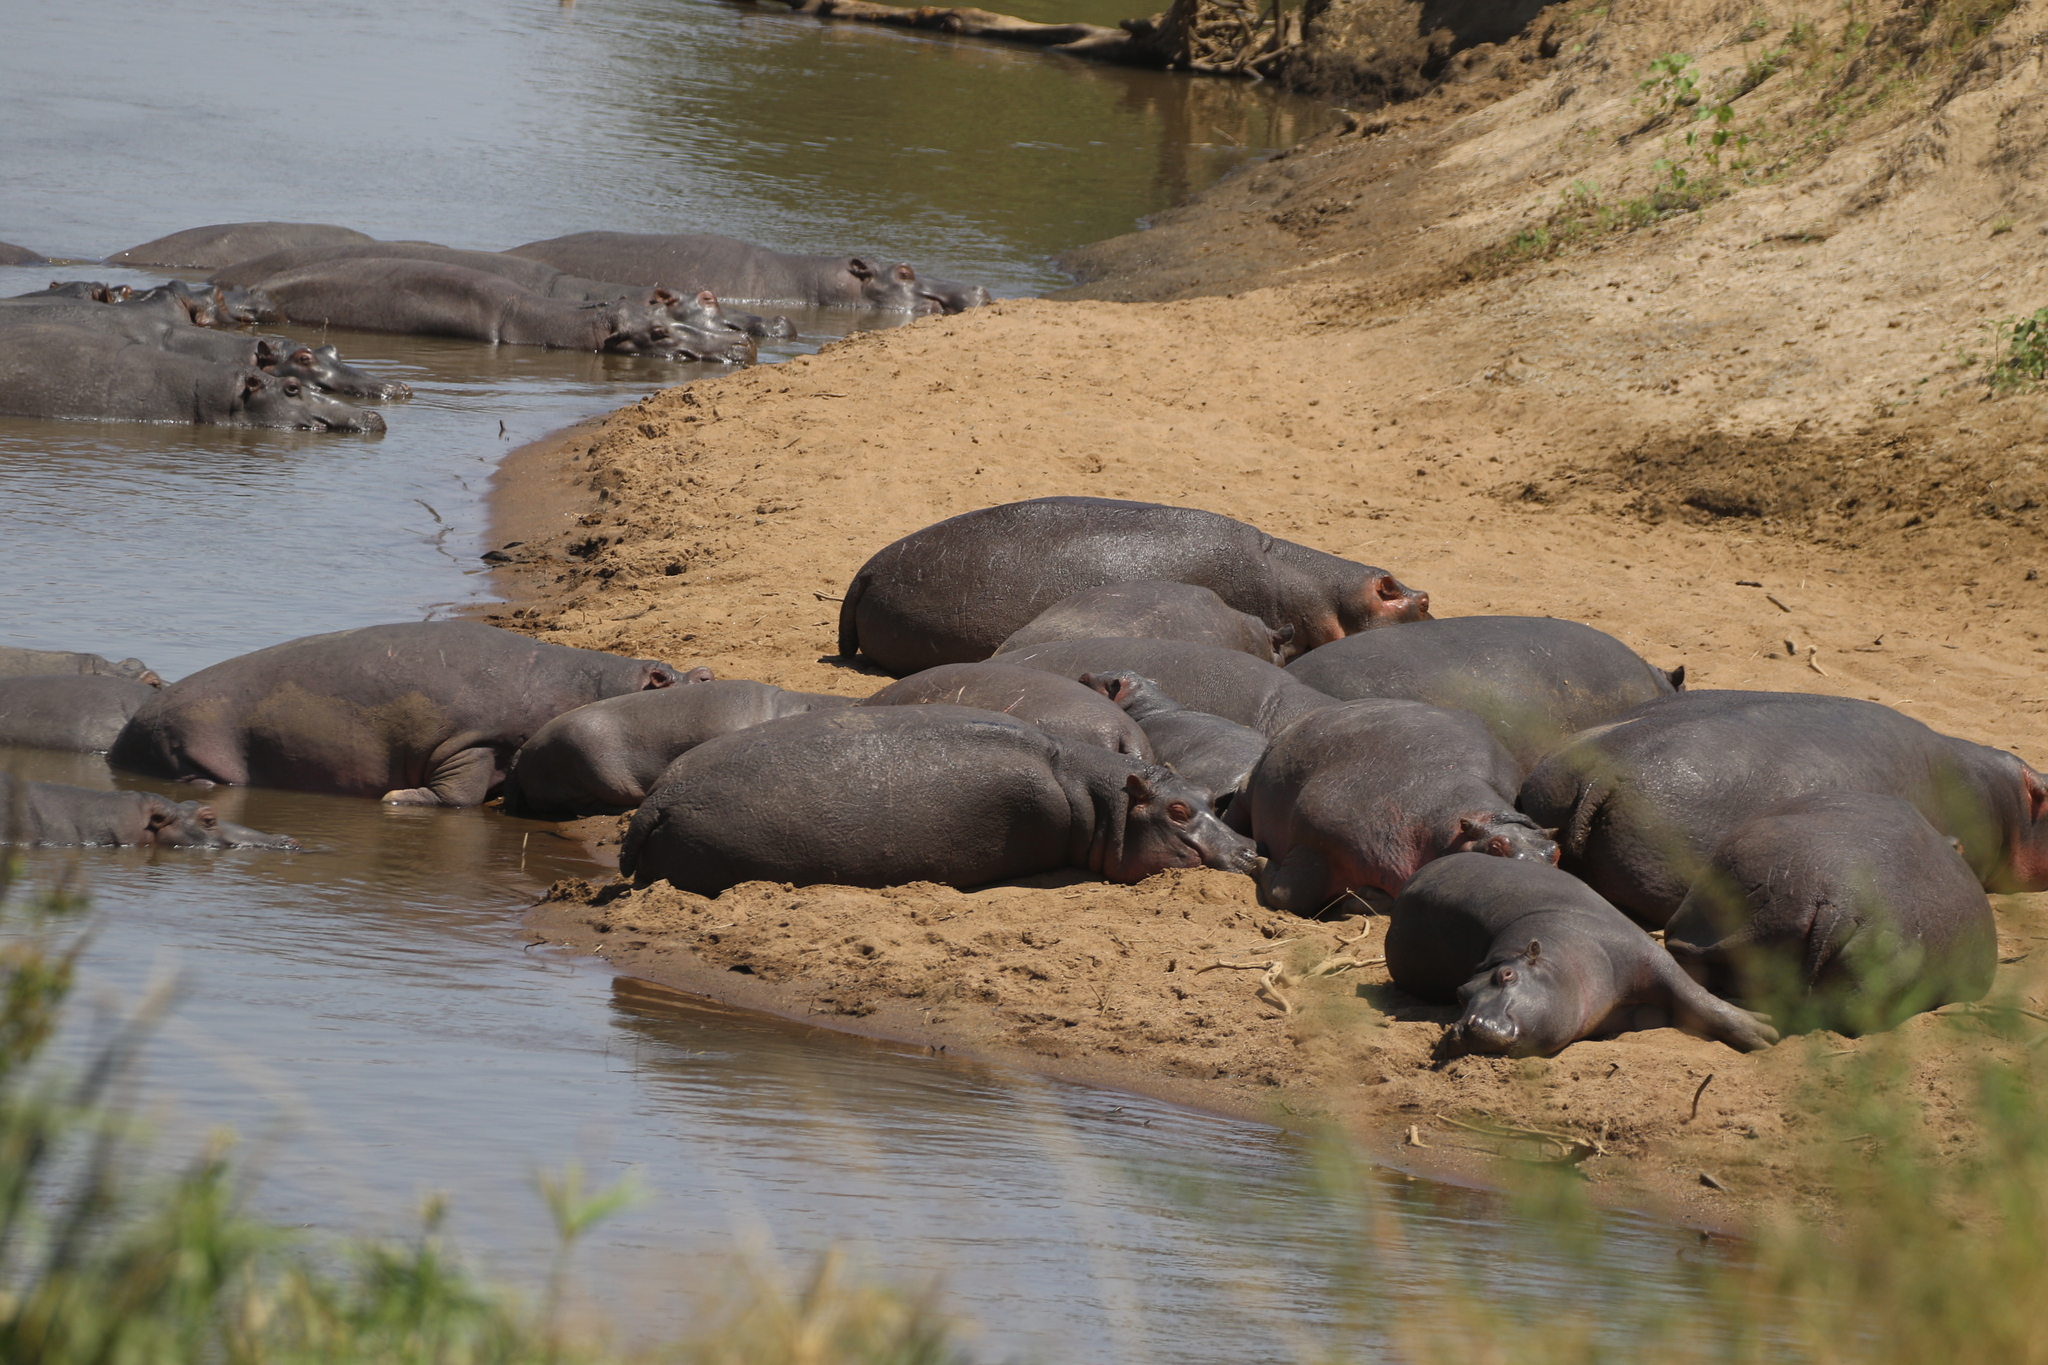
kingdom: Animalia
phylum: Chordata
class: Mammalia
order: Artiodactyla
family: Hippopotamidae
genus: Hippopotamus
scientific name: Hippopotamus amphibius
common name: Common hippopotamus
